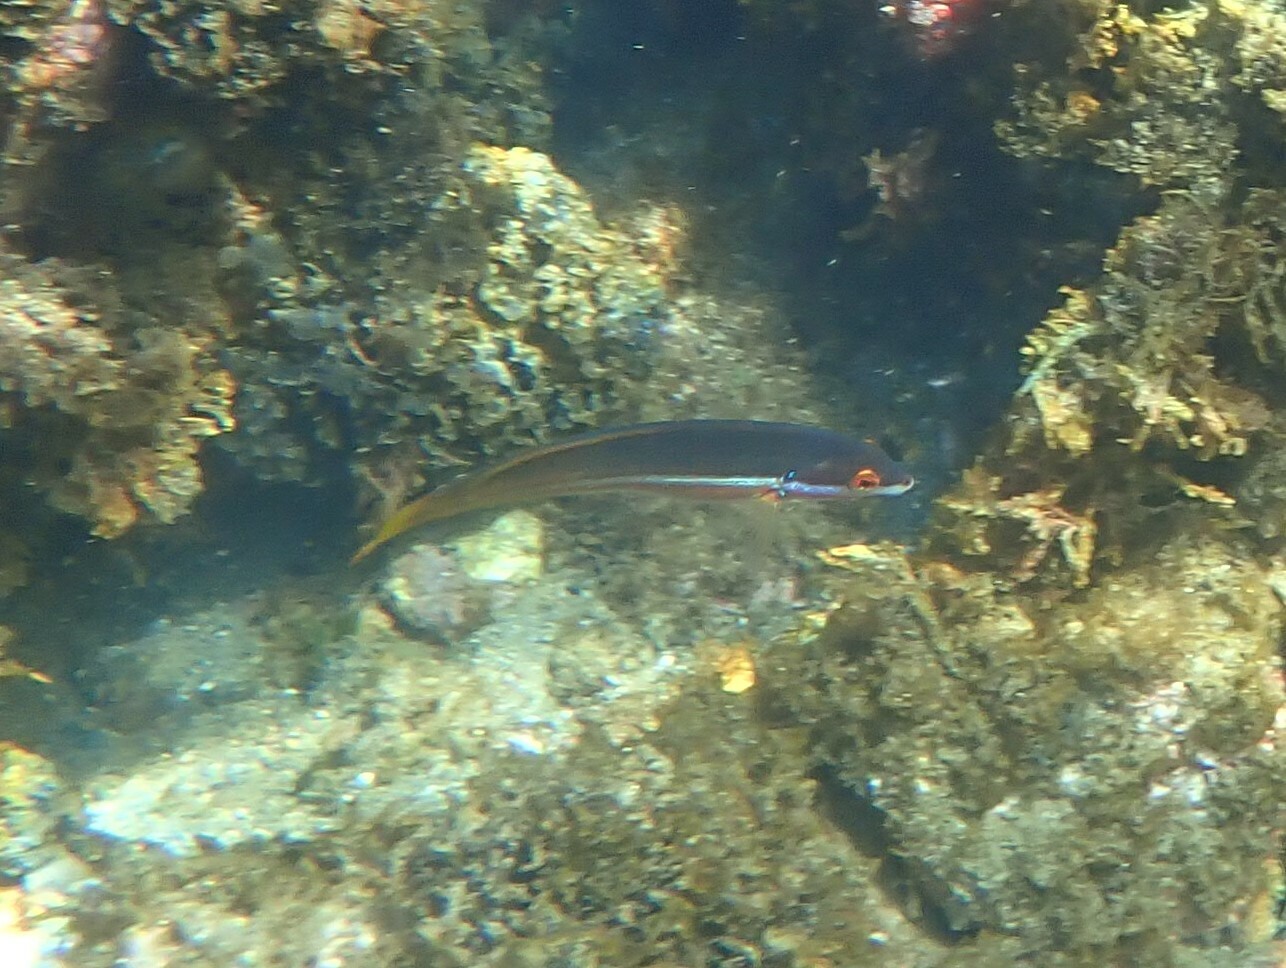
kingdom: Animalia
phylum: Chordata
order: Perciformes
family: Labridae
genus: Coris
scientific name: Coris
